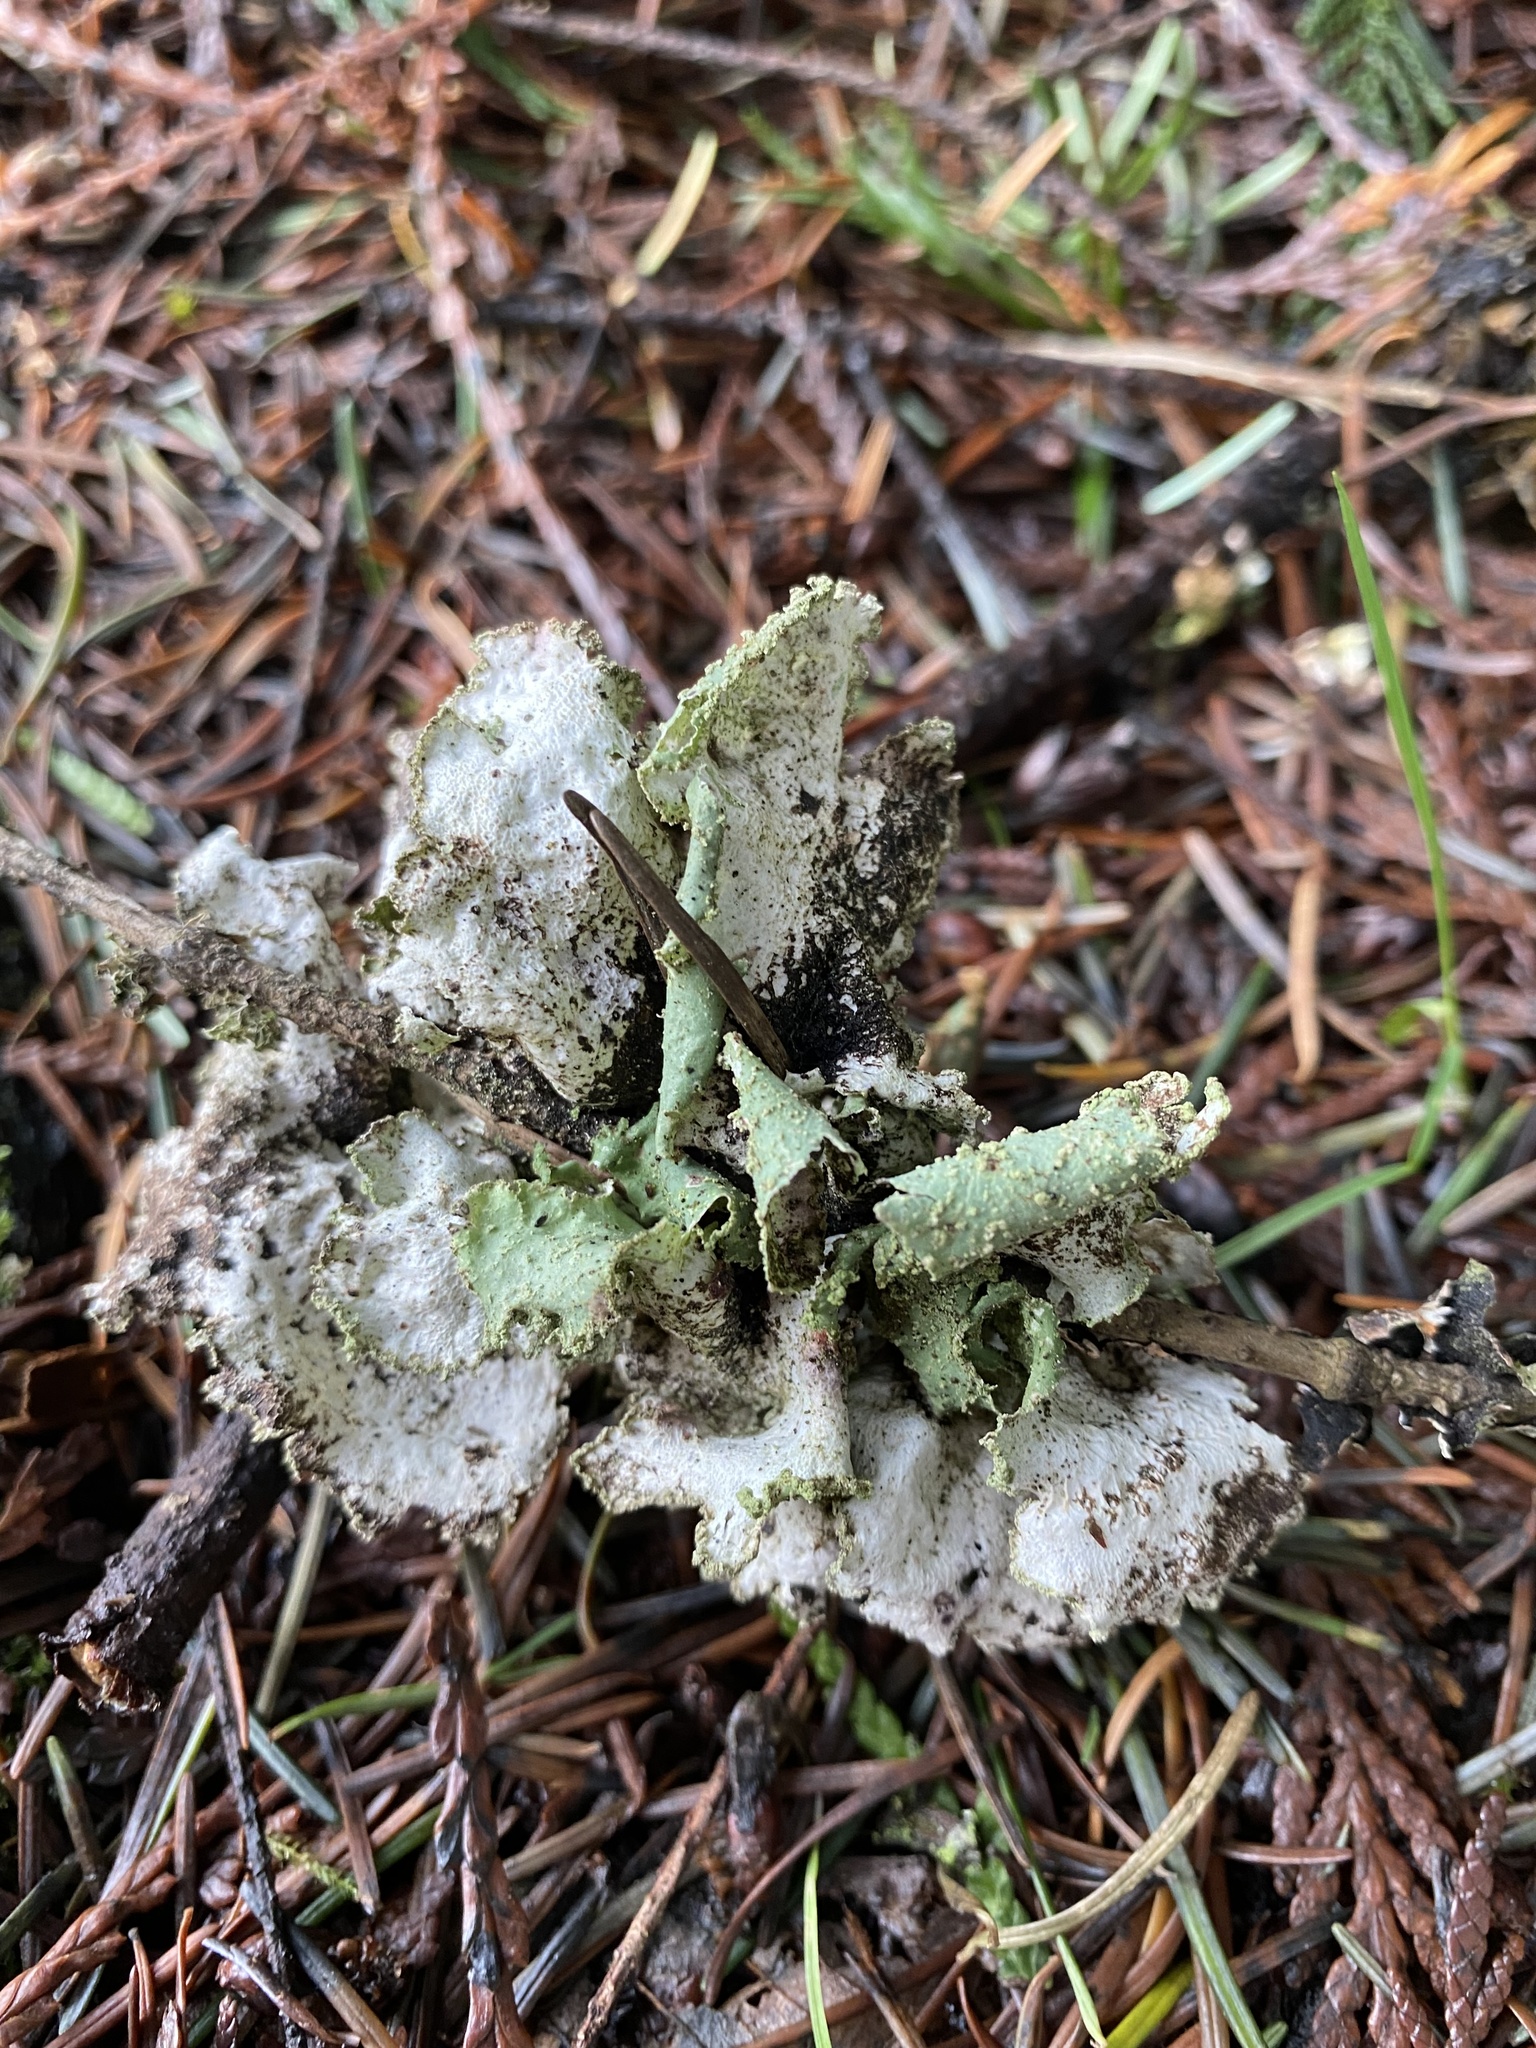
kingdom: Fungi
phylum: Ascomycota
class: Lecanoromycetes
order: Lecanorales
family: Parmeliaceae
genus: Platismatia
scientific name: Platismatia glauca
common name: Varied rag lichen
